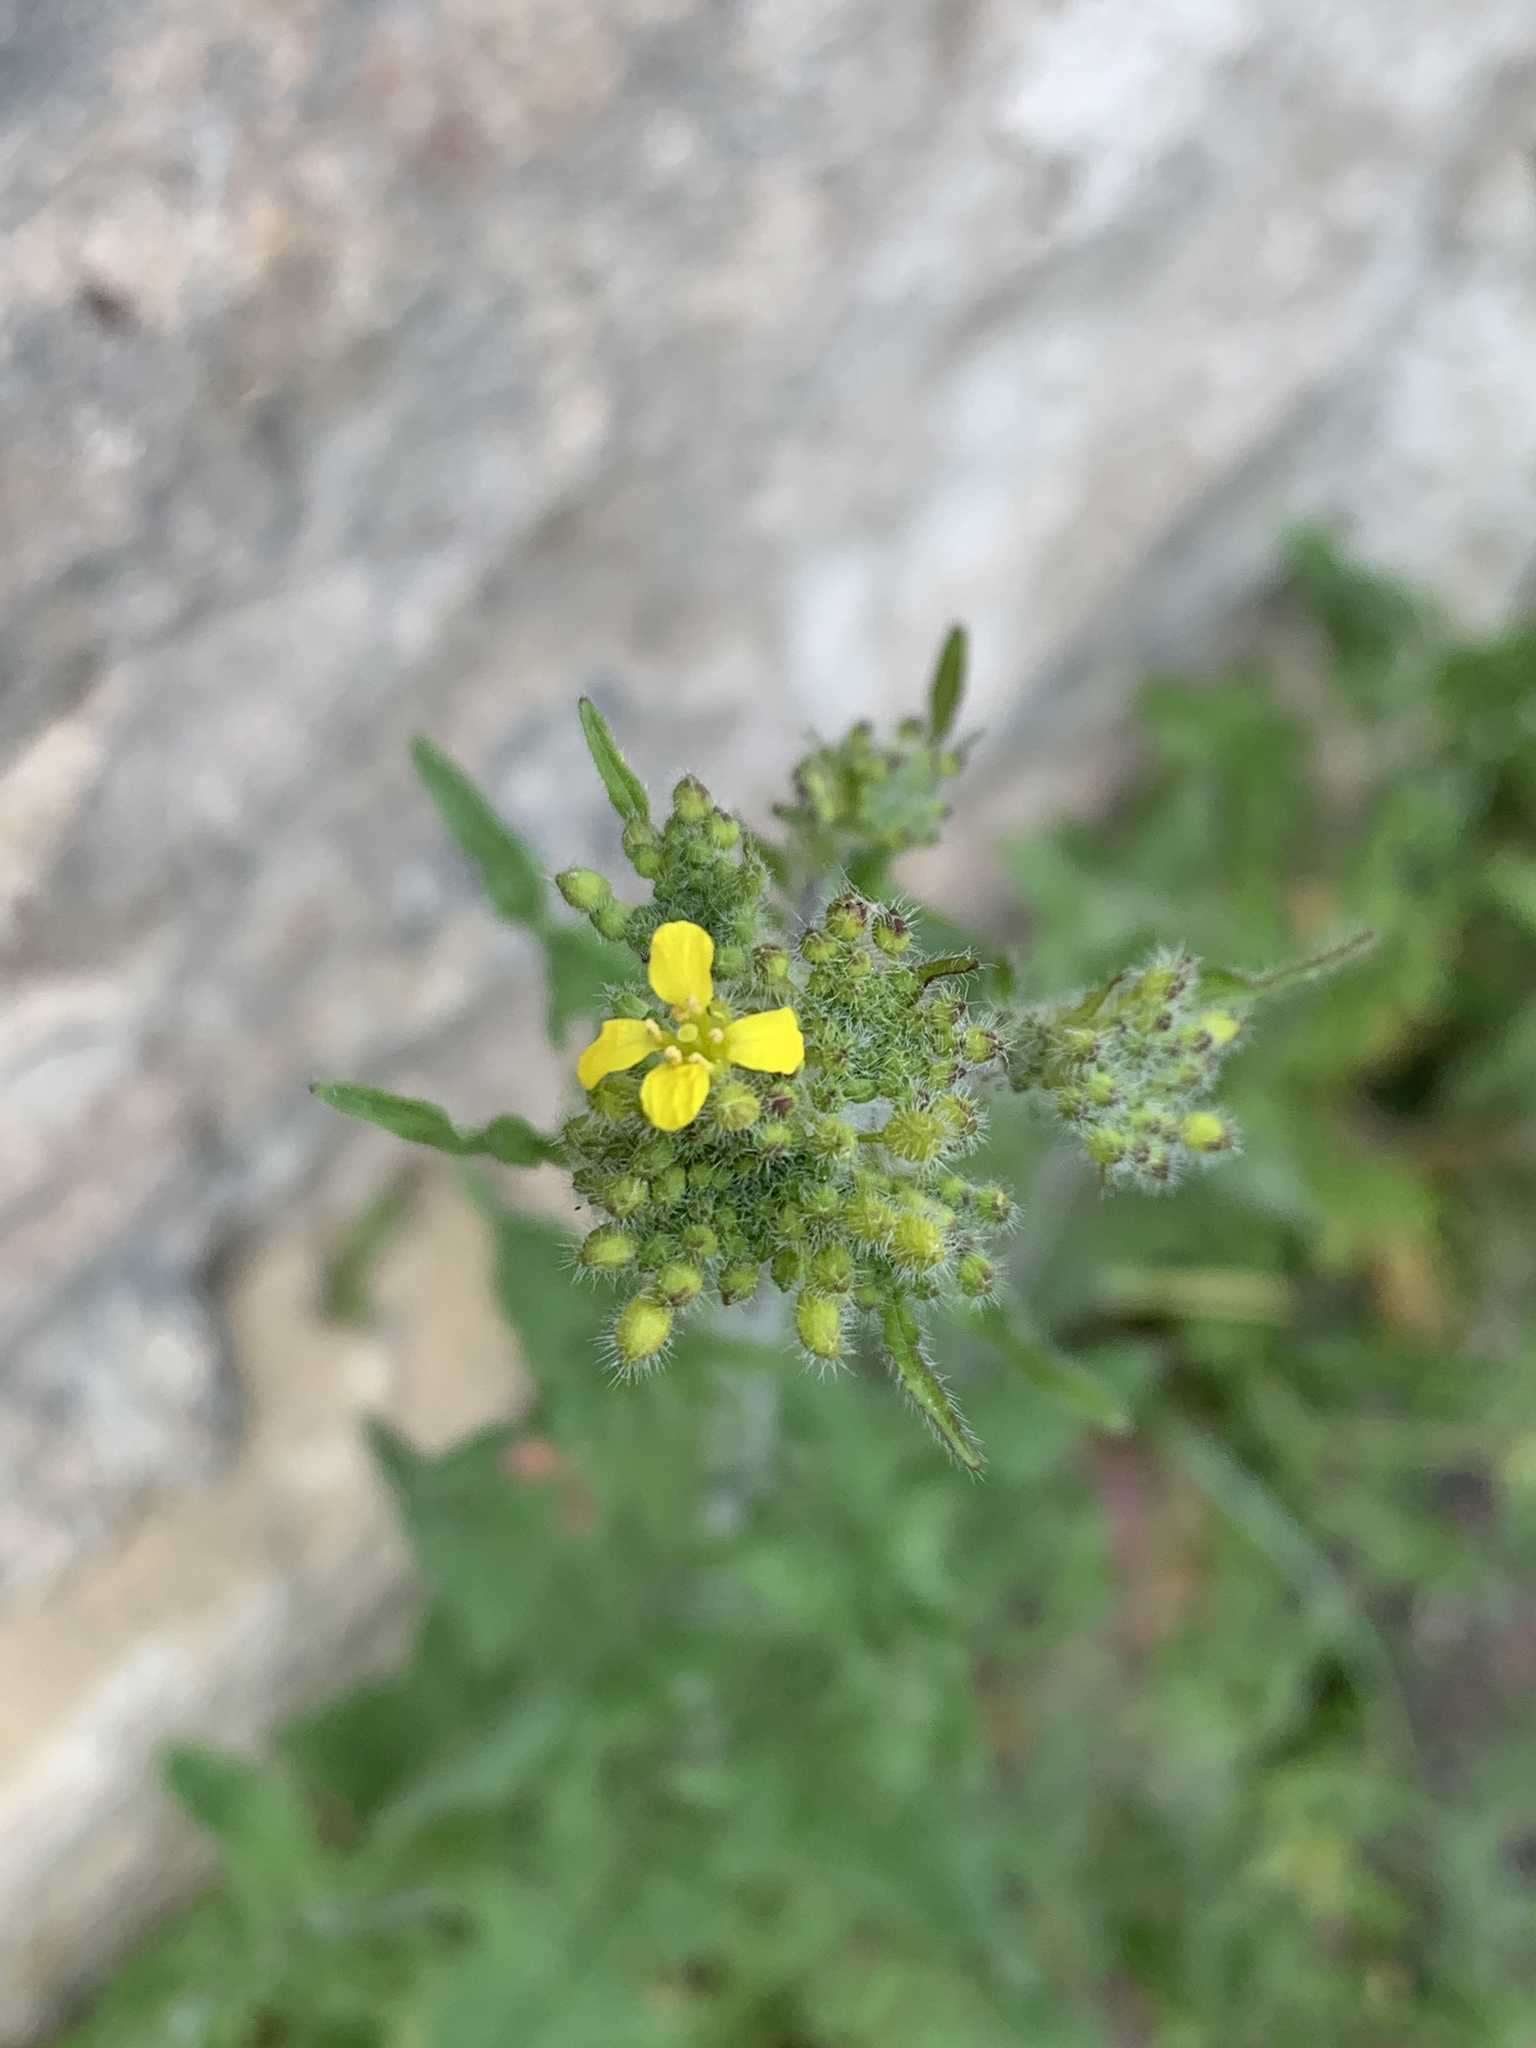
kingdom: Plantae
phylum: Tracheophyta
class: Magnoliopsida
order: Brassicales
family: Brassicaceae
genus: Sisymbrium
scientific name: Sisymbrium loeselii
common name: False london-rocket
